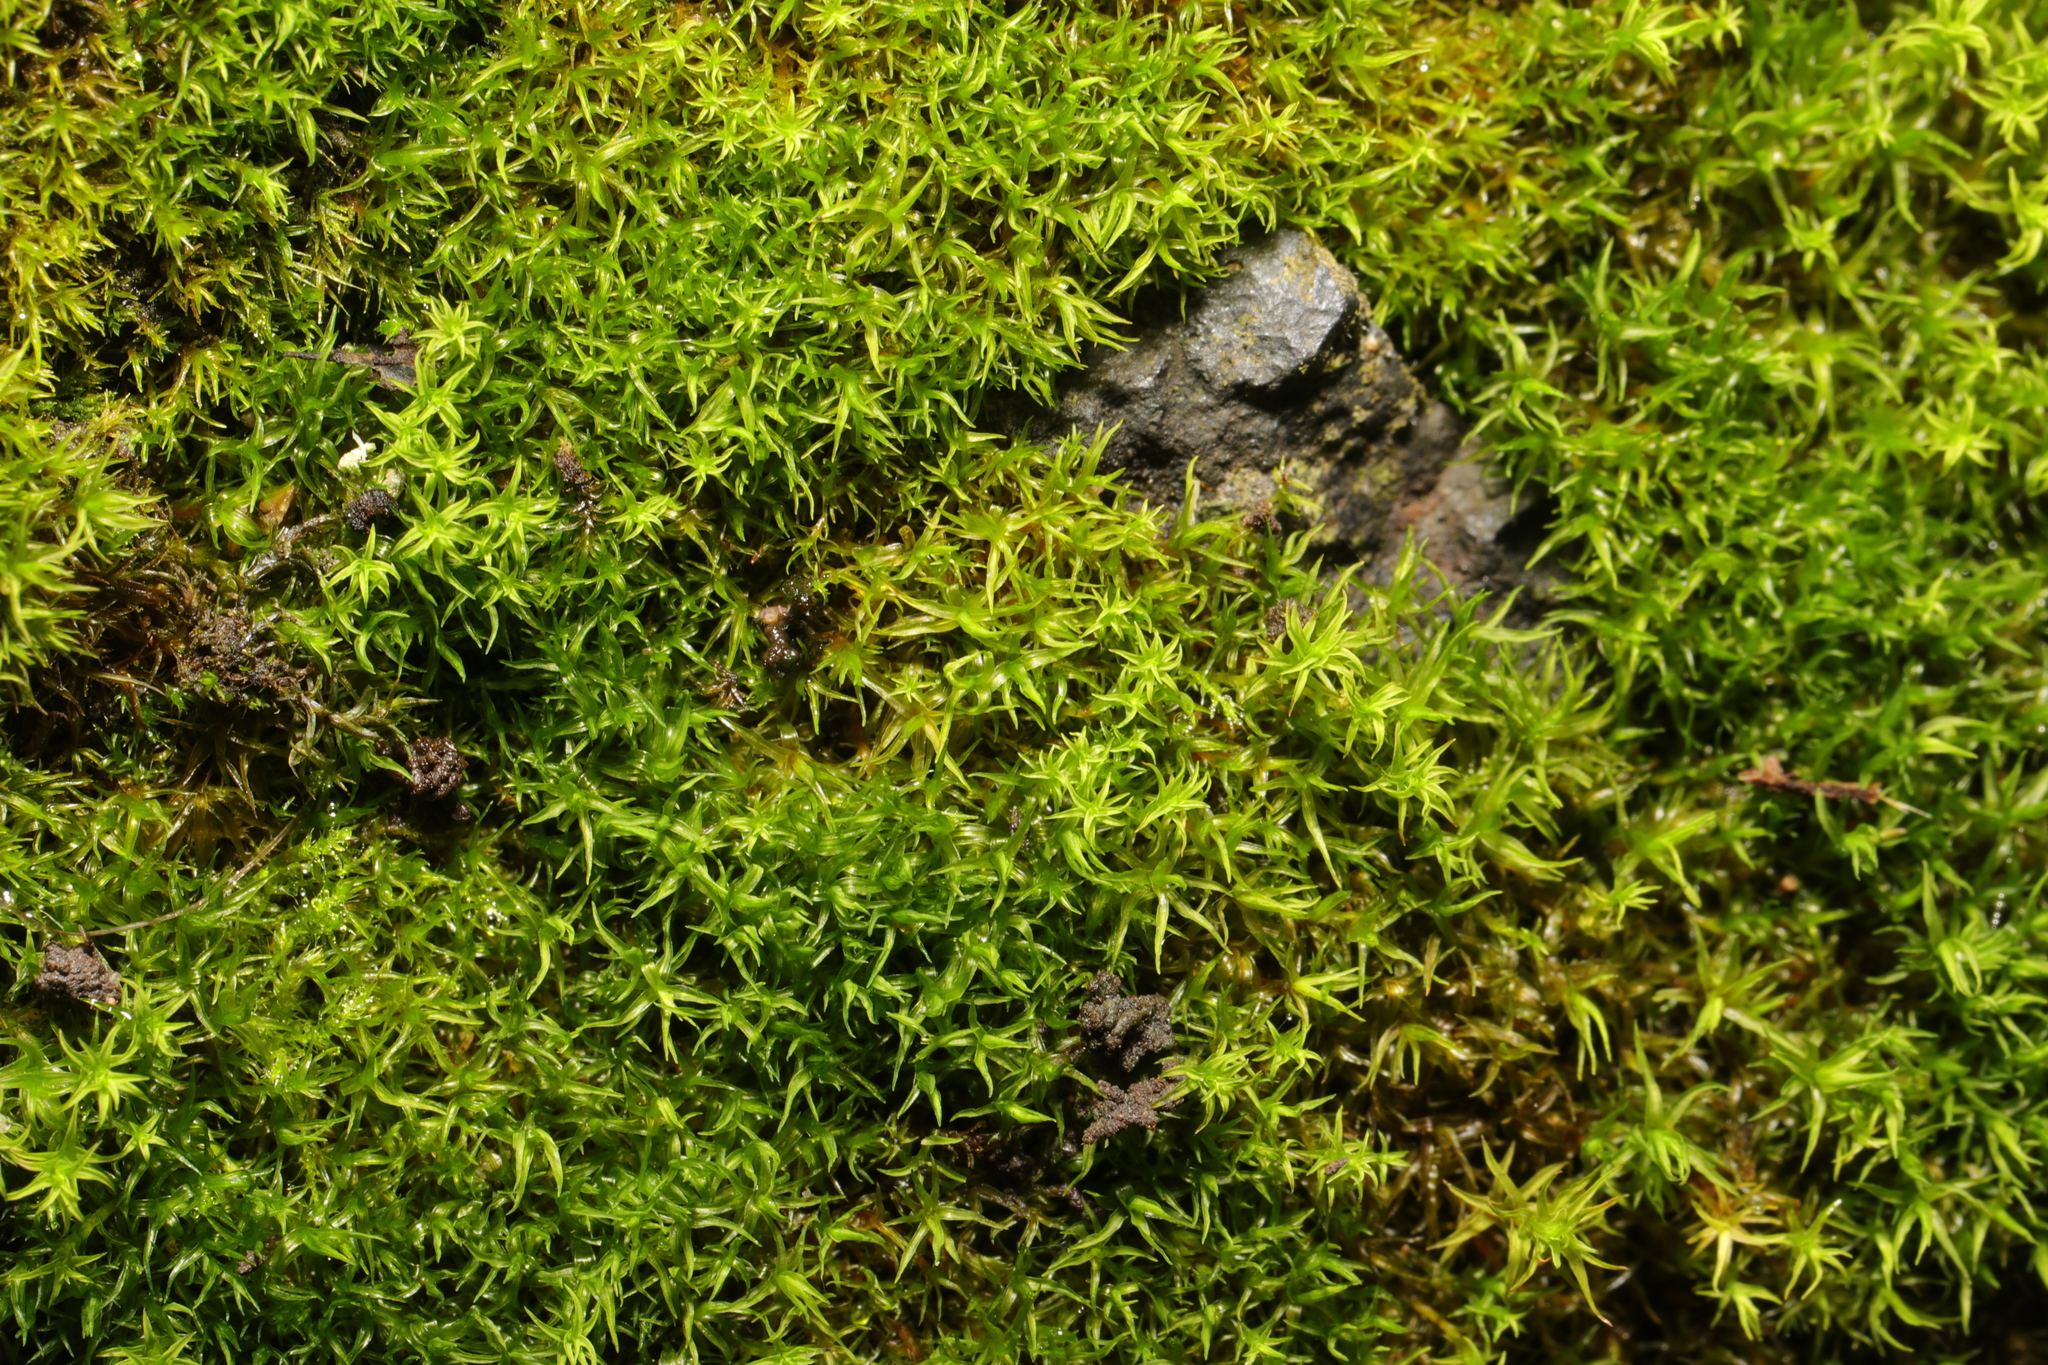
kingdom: Plantae
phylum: Bryophyta
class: Bryopsida
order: Pottiales
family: Pottiaceae
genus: Vinealobryum
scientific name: Vinealobryum insulanum
